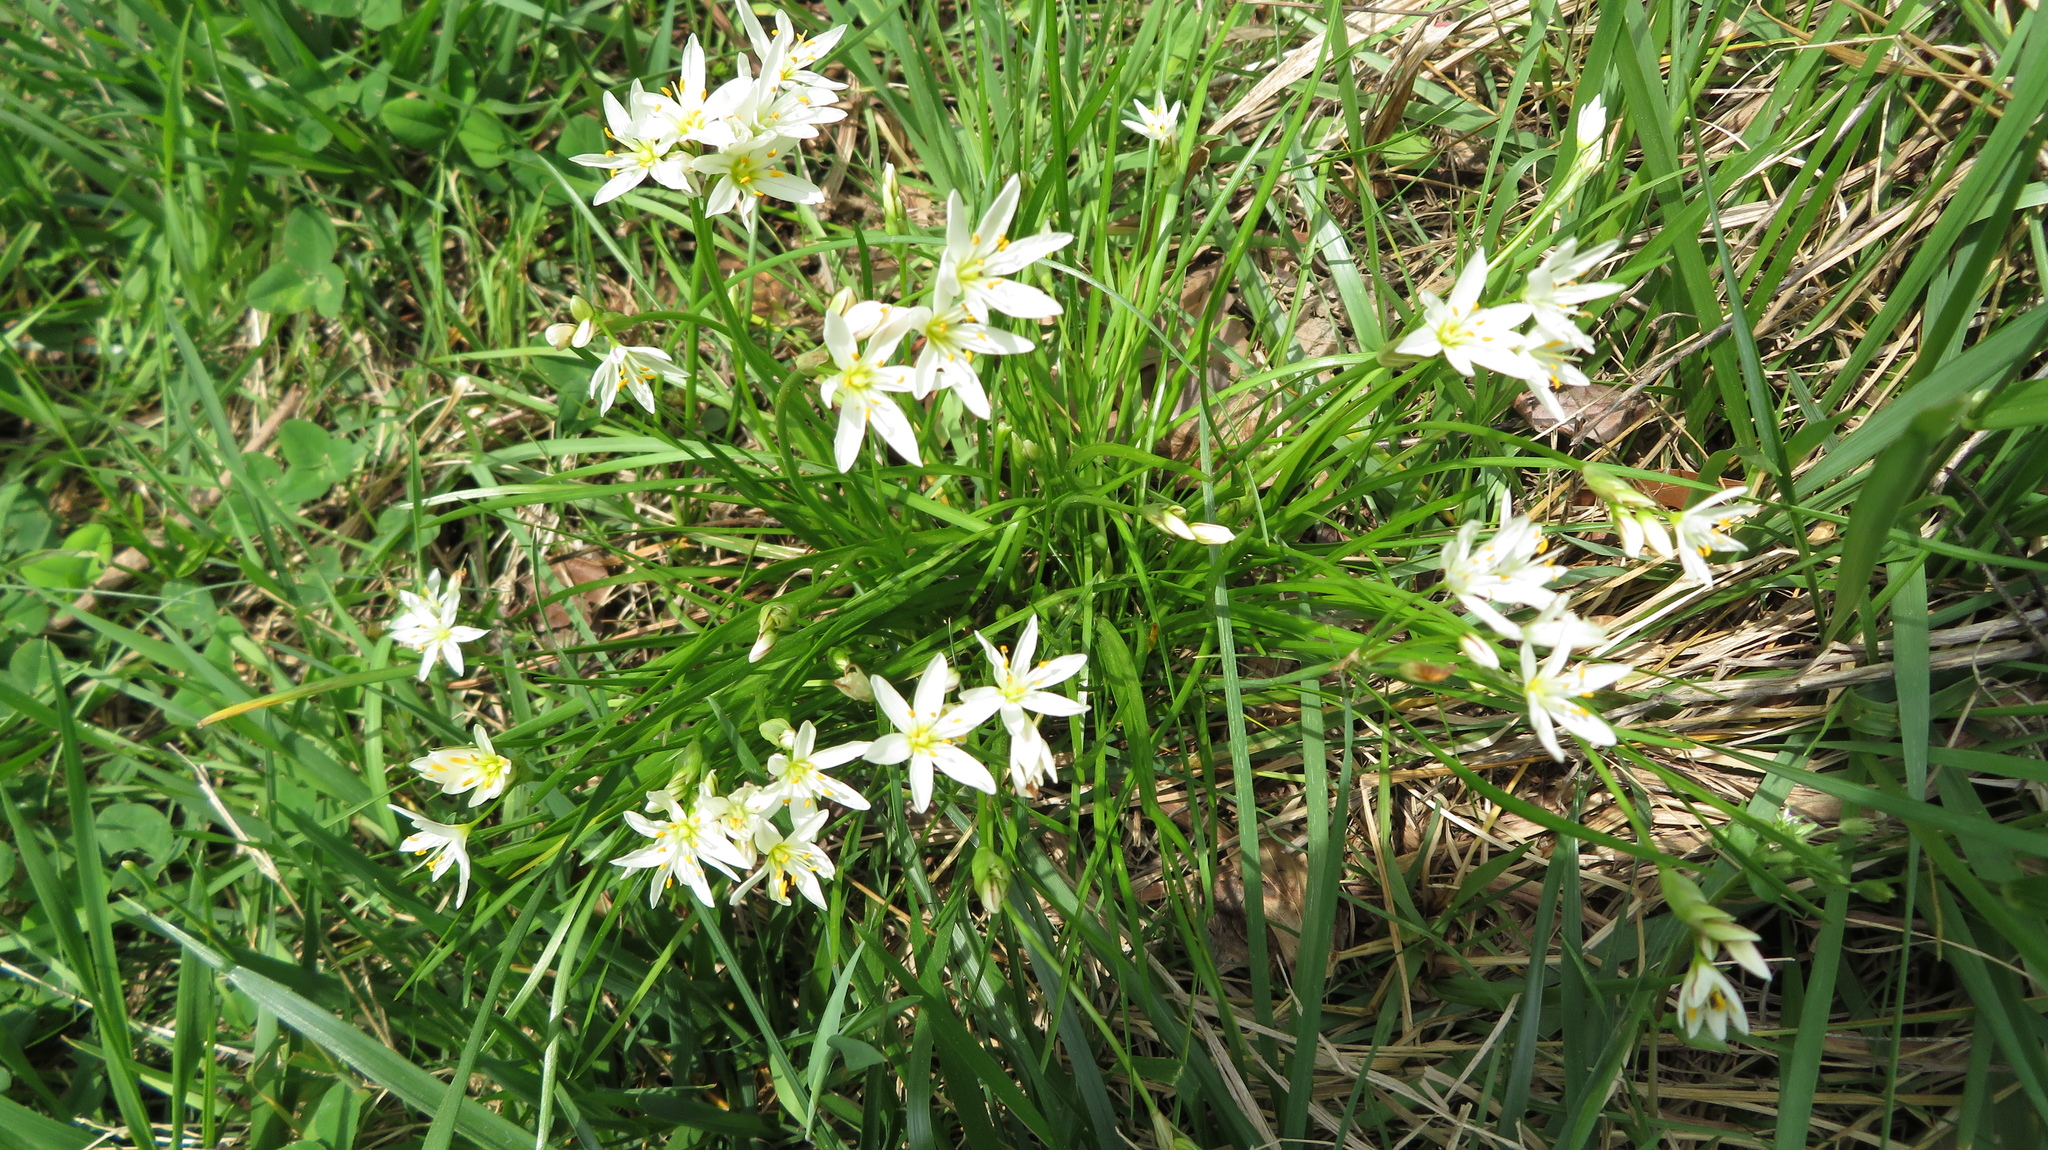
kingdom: Plantae
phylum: Tracheophyta
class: Liliopsida
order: Asparagales
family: Amaryllidaceae
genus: Nothoscordum
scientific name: Nothoscordum bivalve
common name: Crow-poison
